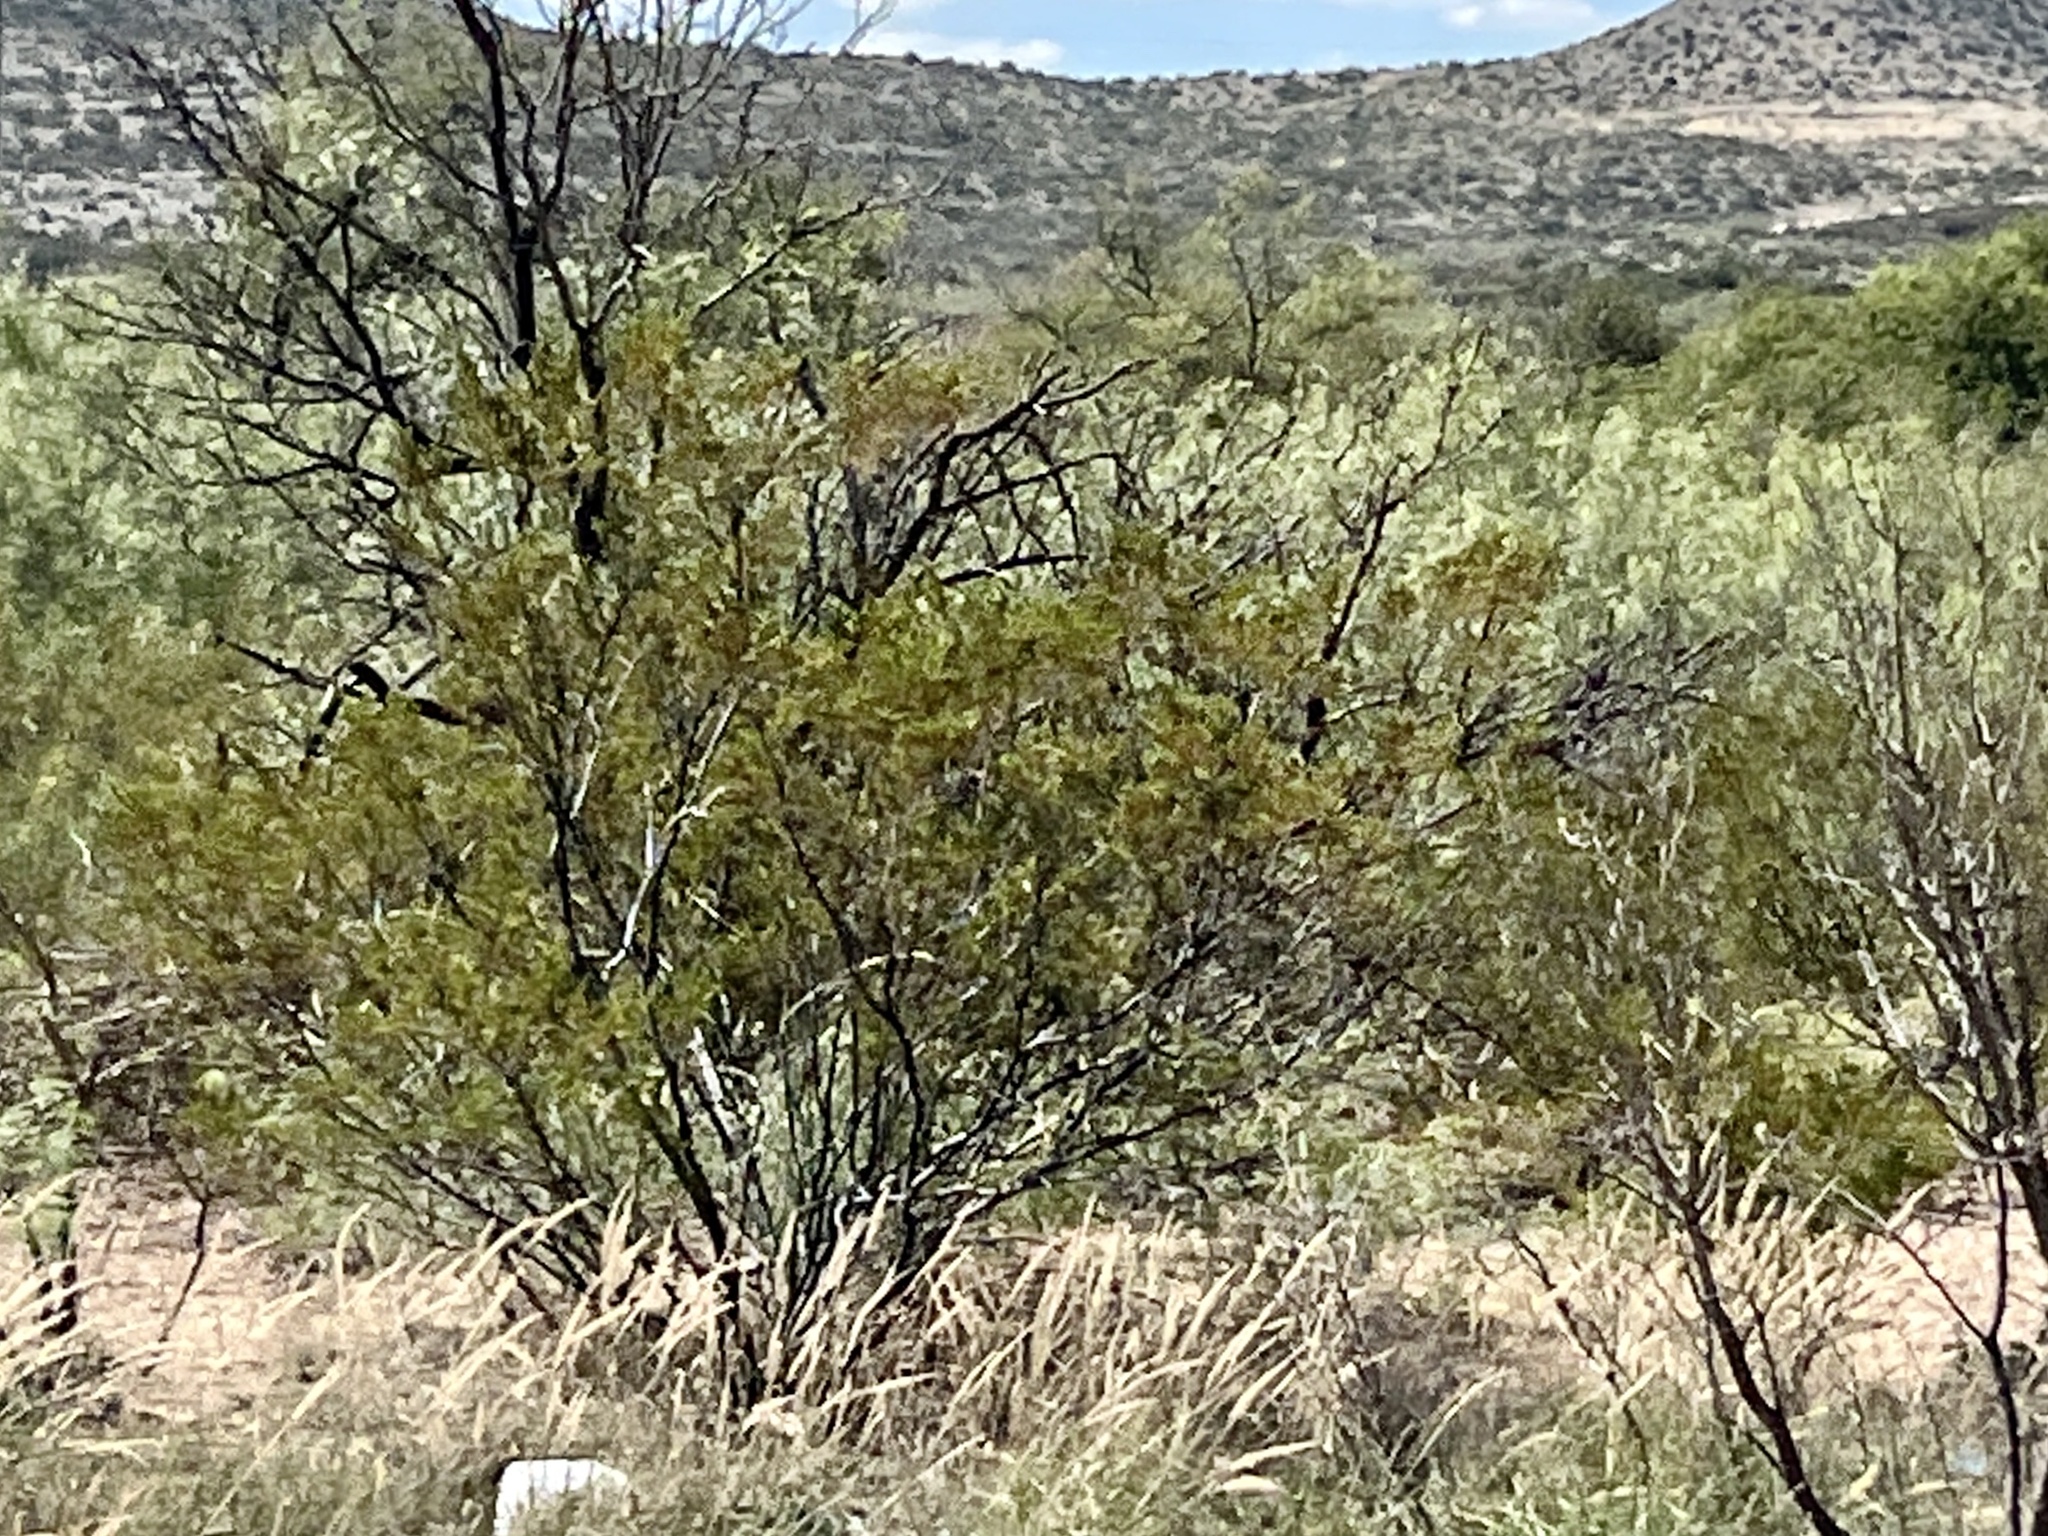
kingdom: Plantae
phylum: Tracheophyta
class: Magnoliopsida
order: Zygophyllales
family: Zygophyllaceae
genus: Larrea
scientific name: Larrea tridentata
